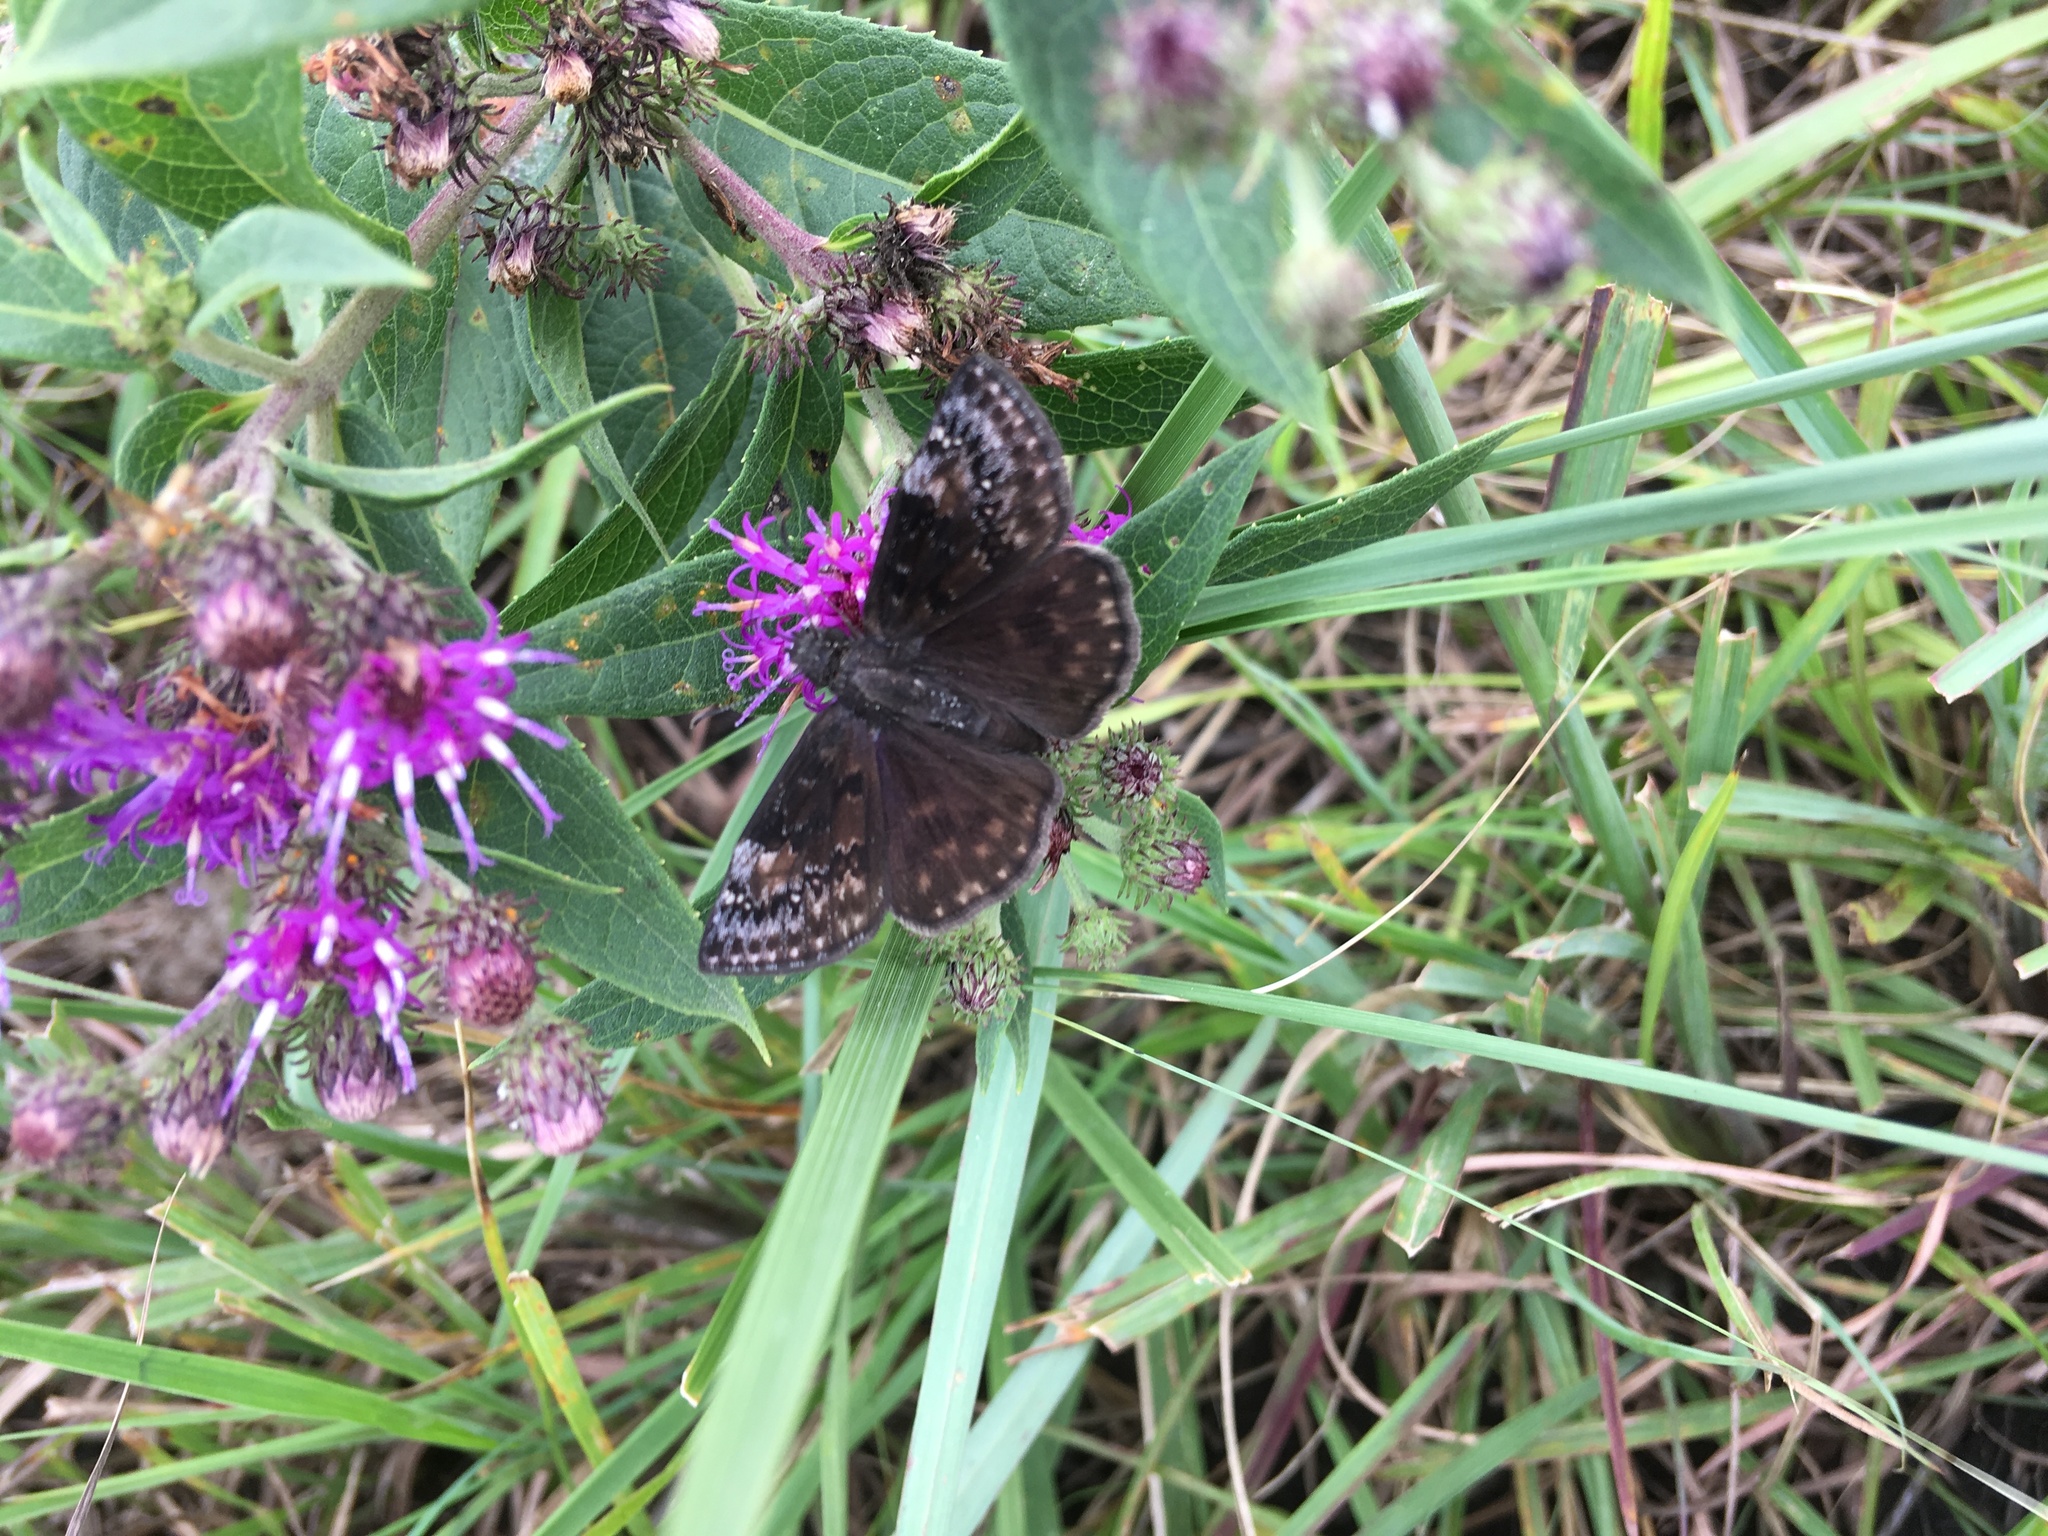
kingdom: Animalia
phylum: Arthropoda
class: Insecta
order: Lepidoptera
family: Hesperiidae
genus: Erynnis
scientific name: Erynnis baptisiae
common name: Wild indigo duskywing
